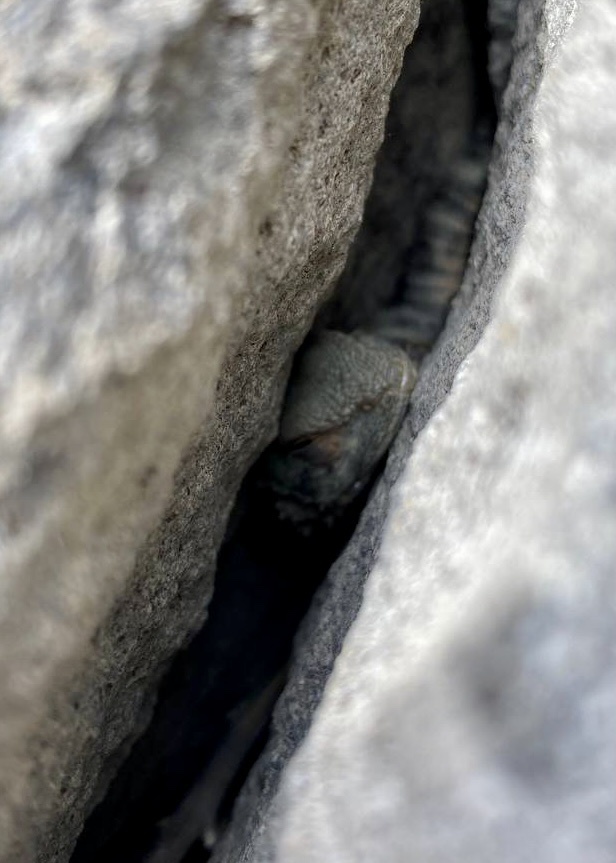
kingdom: Animalia
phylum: Chordata
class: Squamata
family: Agamidae
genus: Paralaudakia
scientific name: Paralaudakia caucasia
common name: Caucasian agama
